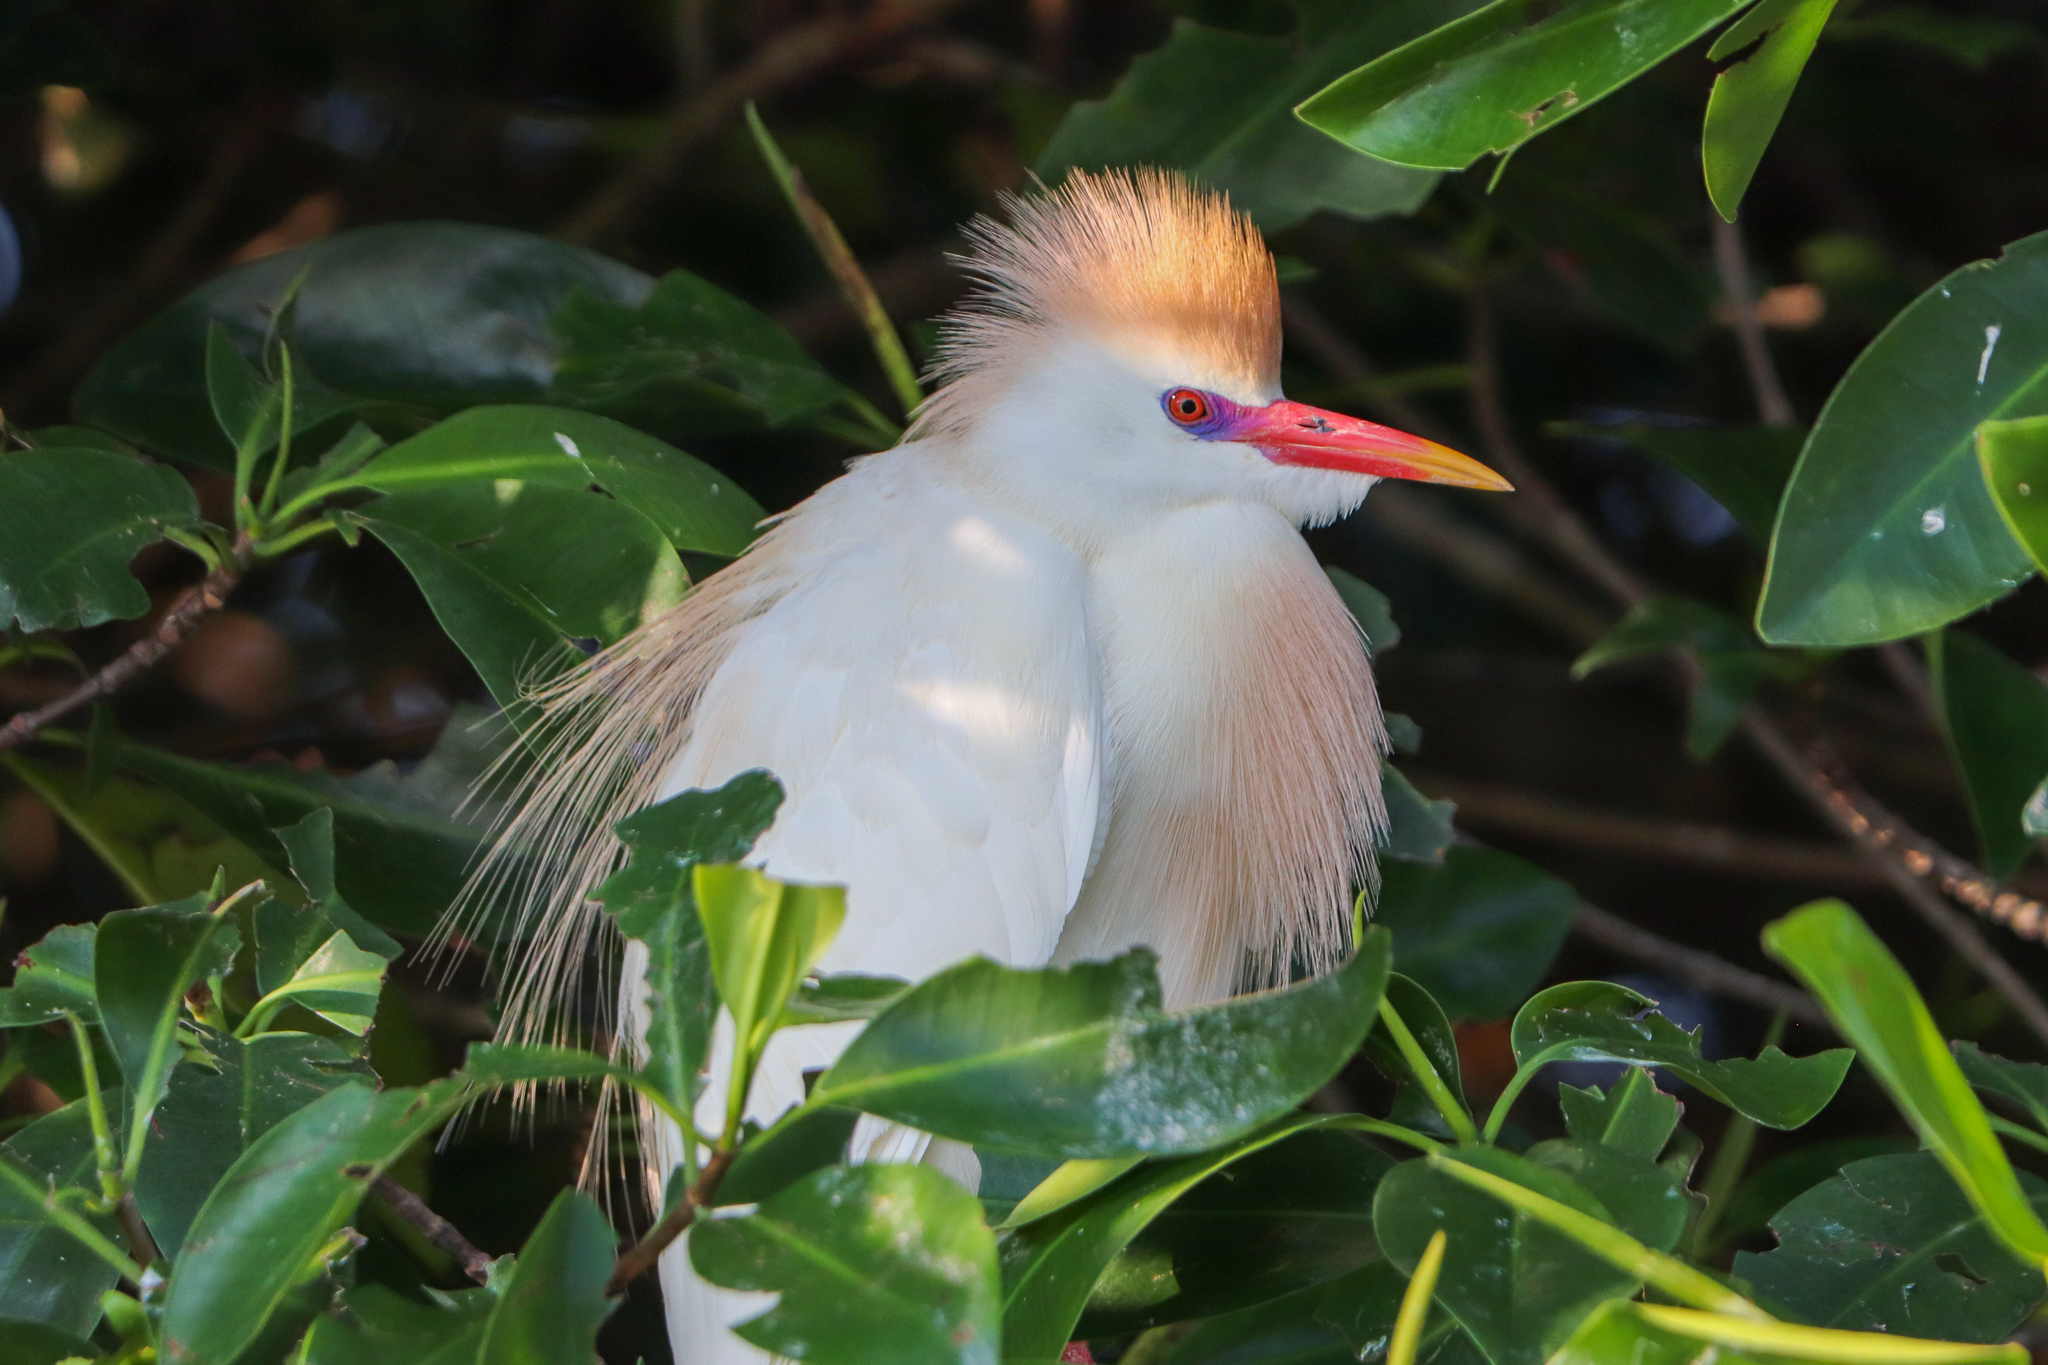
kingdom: Animalia
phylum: Chordata
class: Aves
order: Pelecaniformes
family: Ardeidae
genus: Bubulcus
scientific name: Bubulcus ibis
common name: Cattle egret
